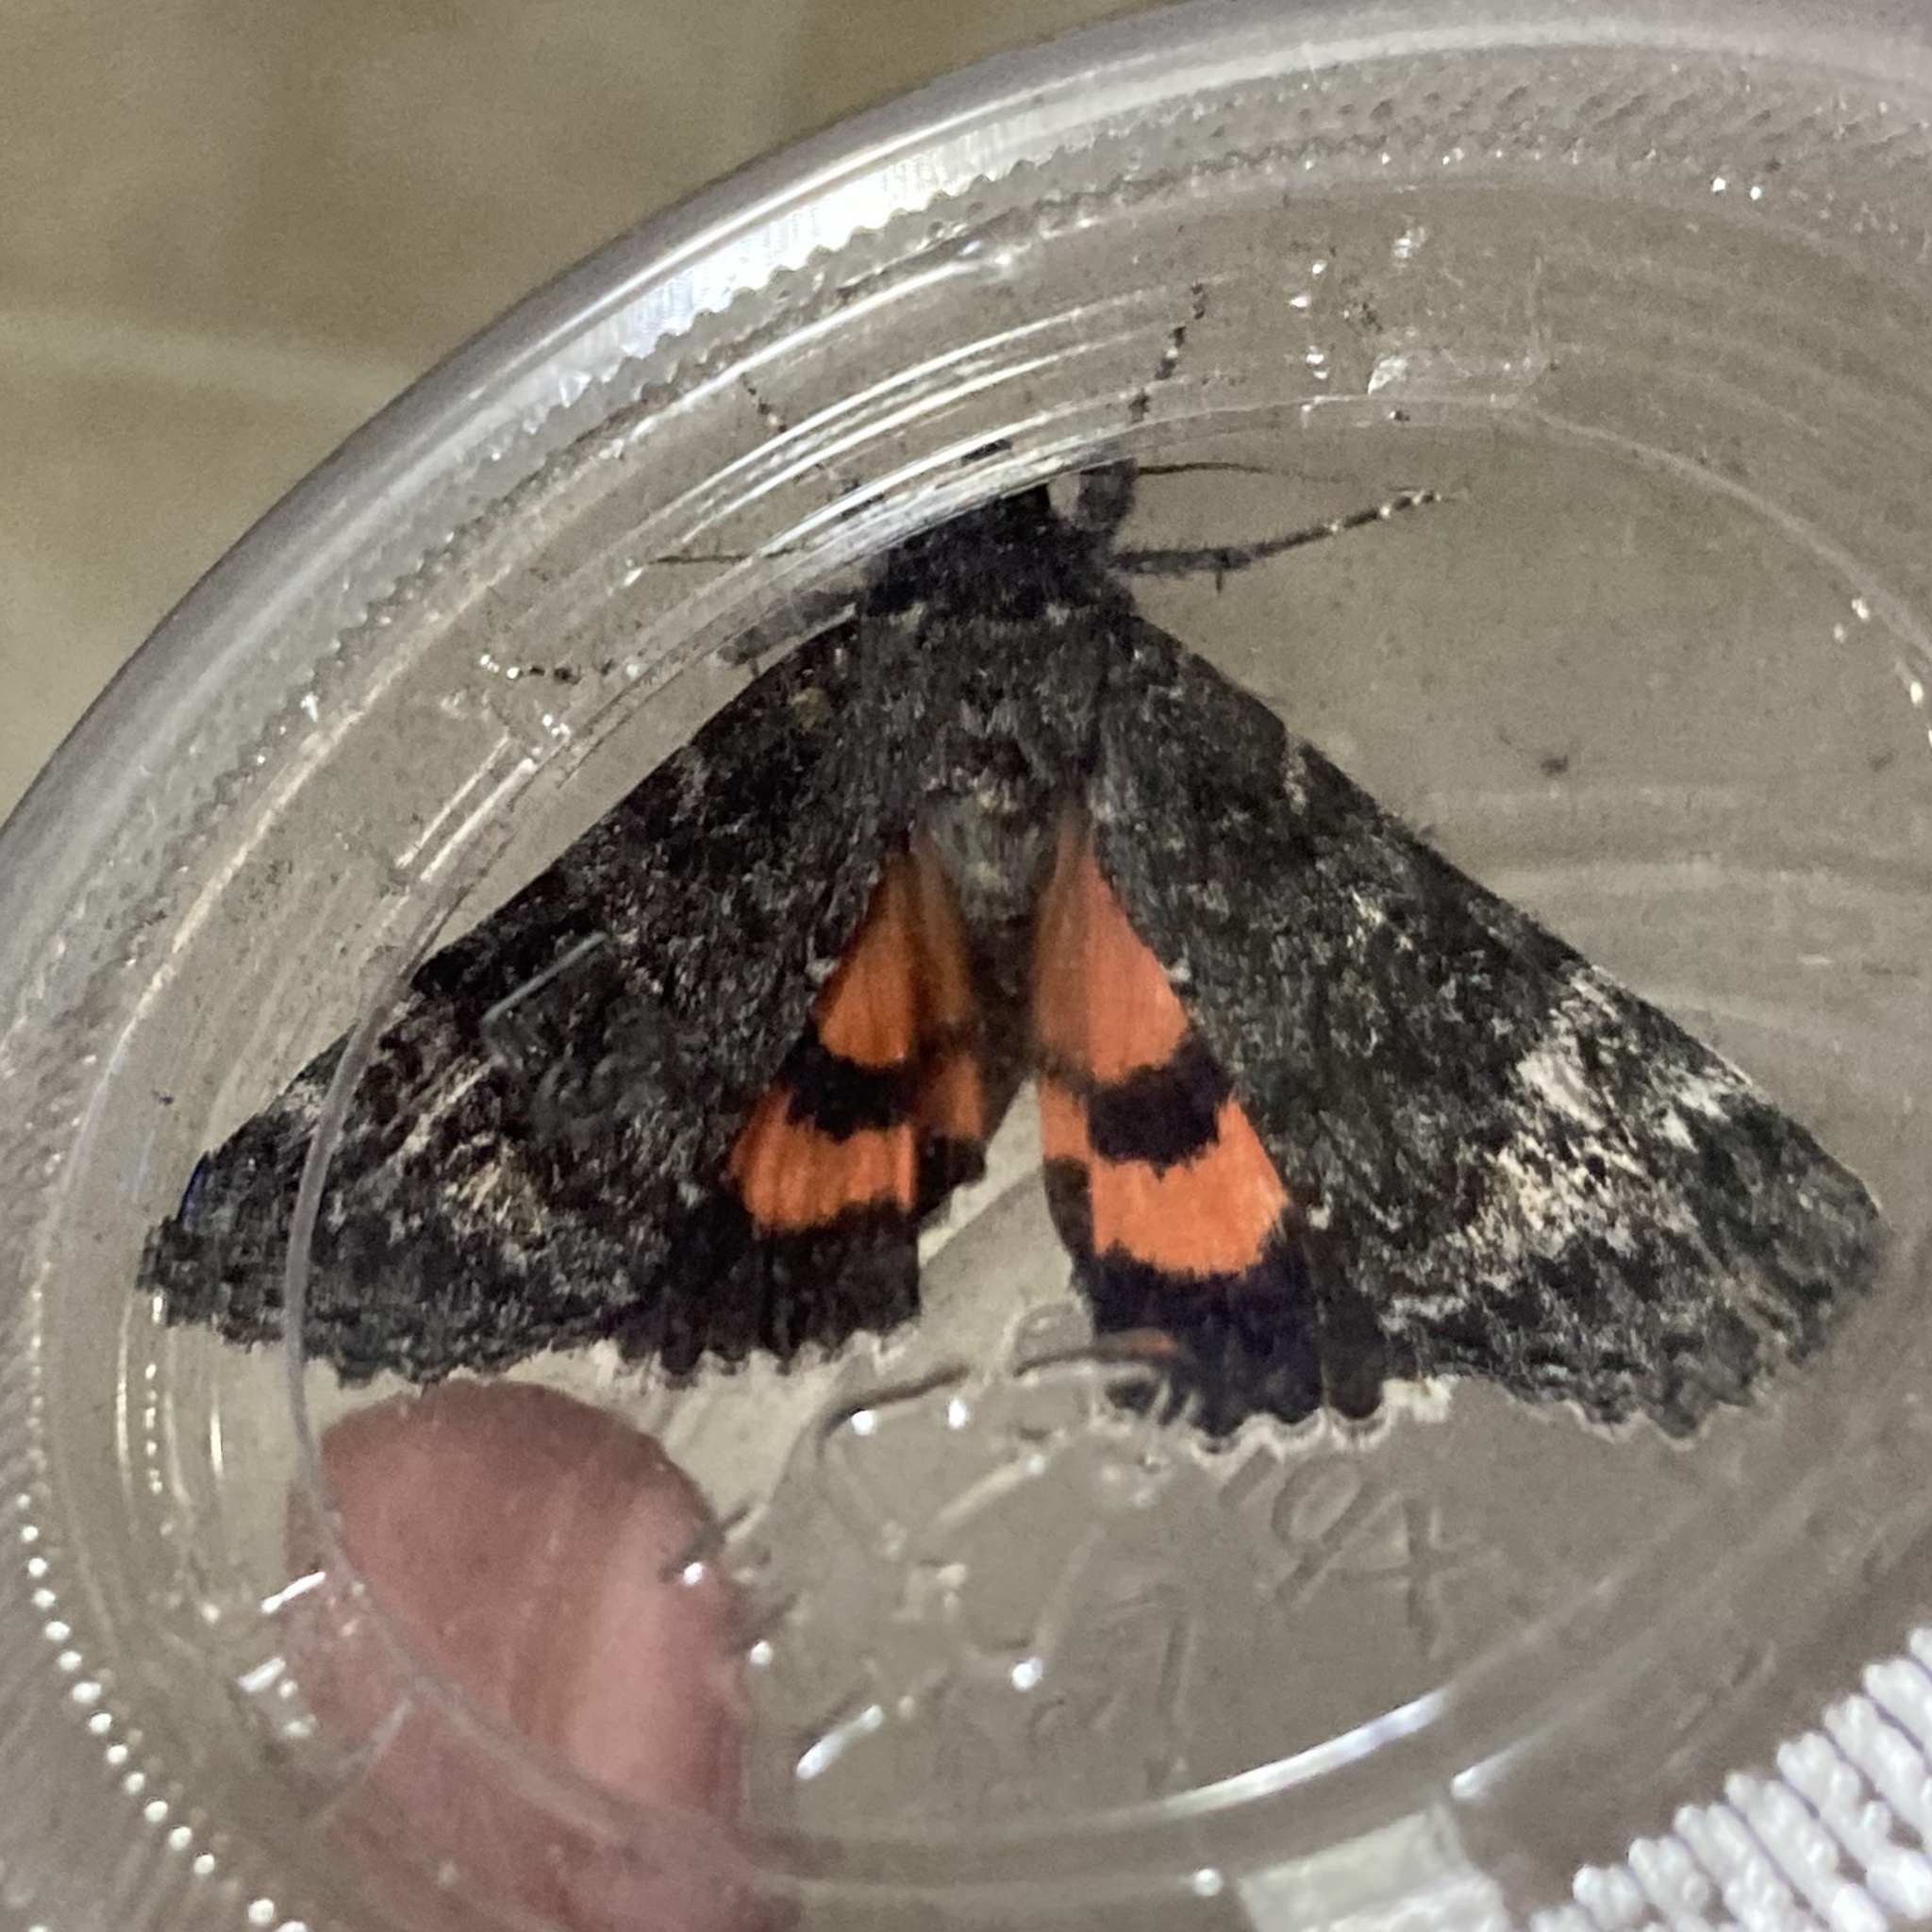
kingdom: Animalia
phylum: Arthropoda
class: Insecta
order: Lepidoptera
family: Erebidae
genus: Catocala
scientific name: Catocala briseis
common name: Briseis underwing
